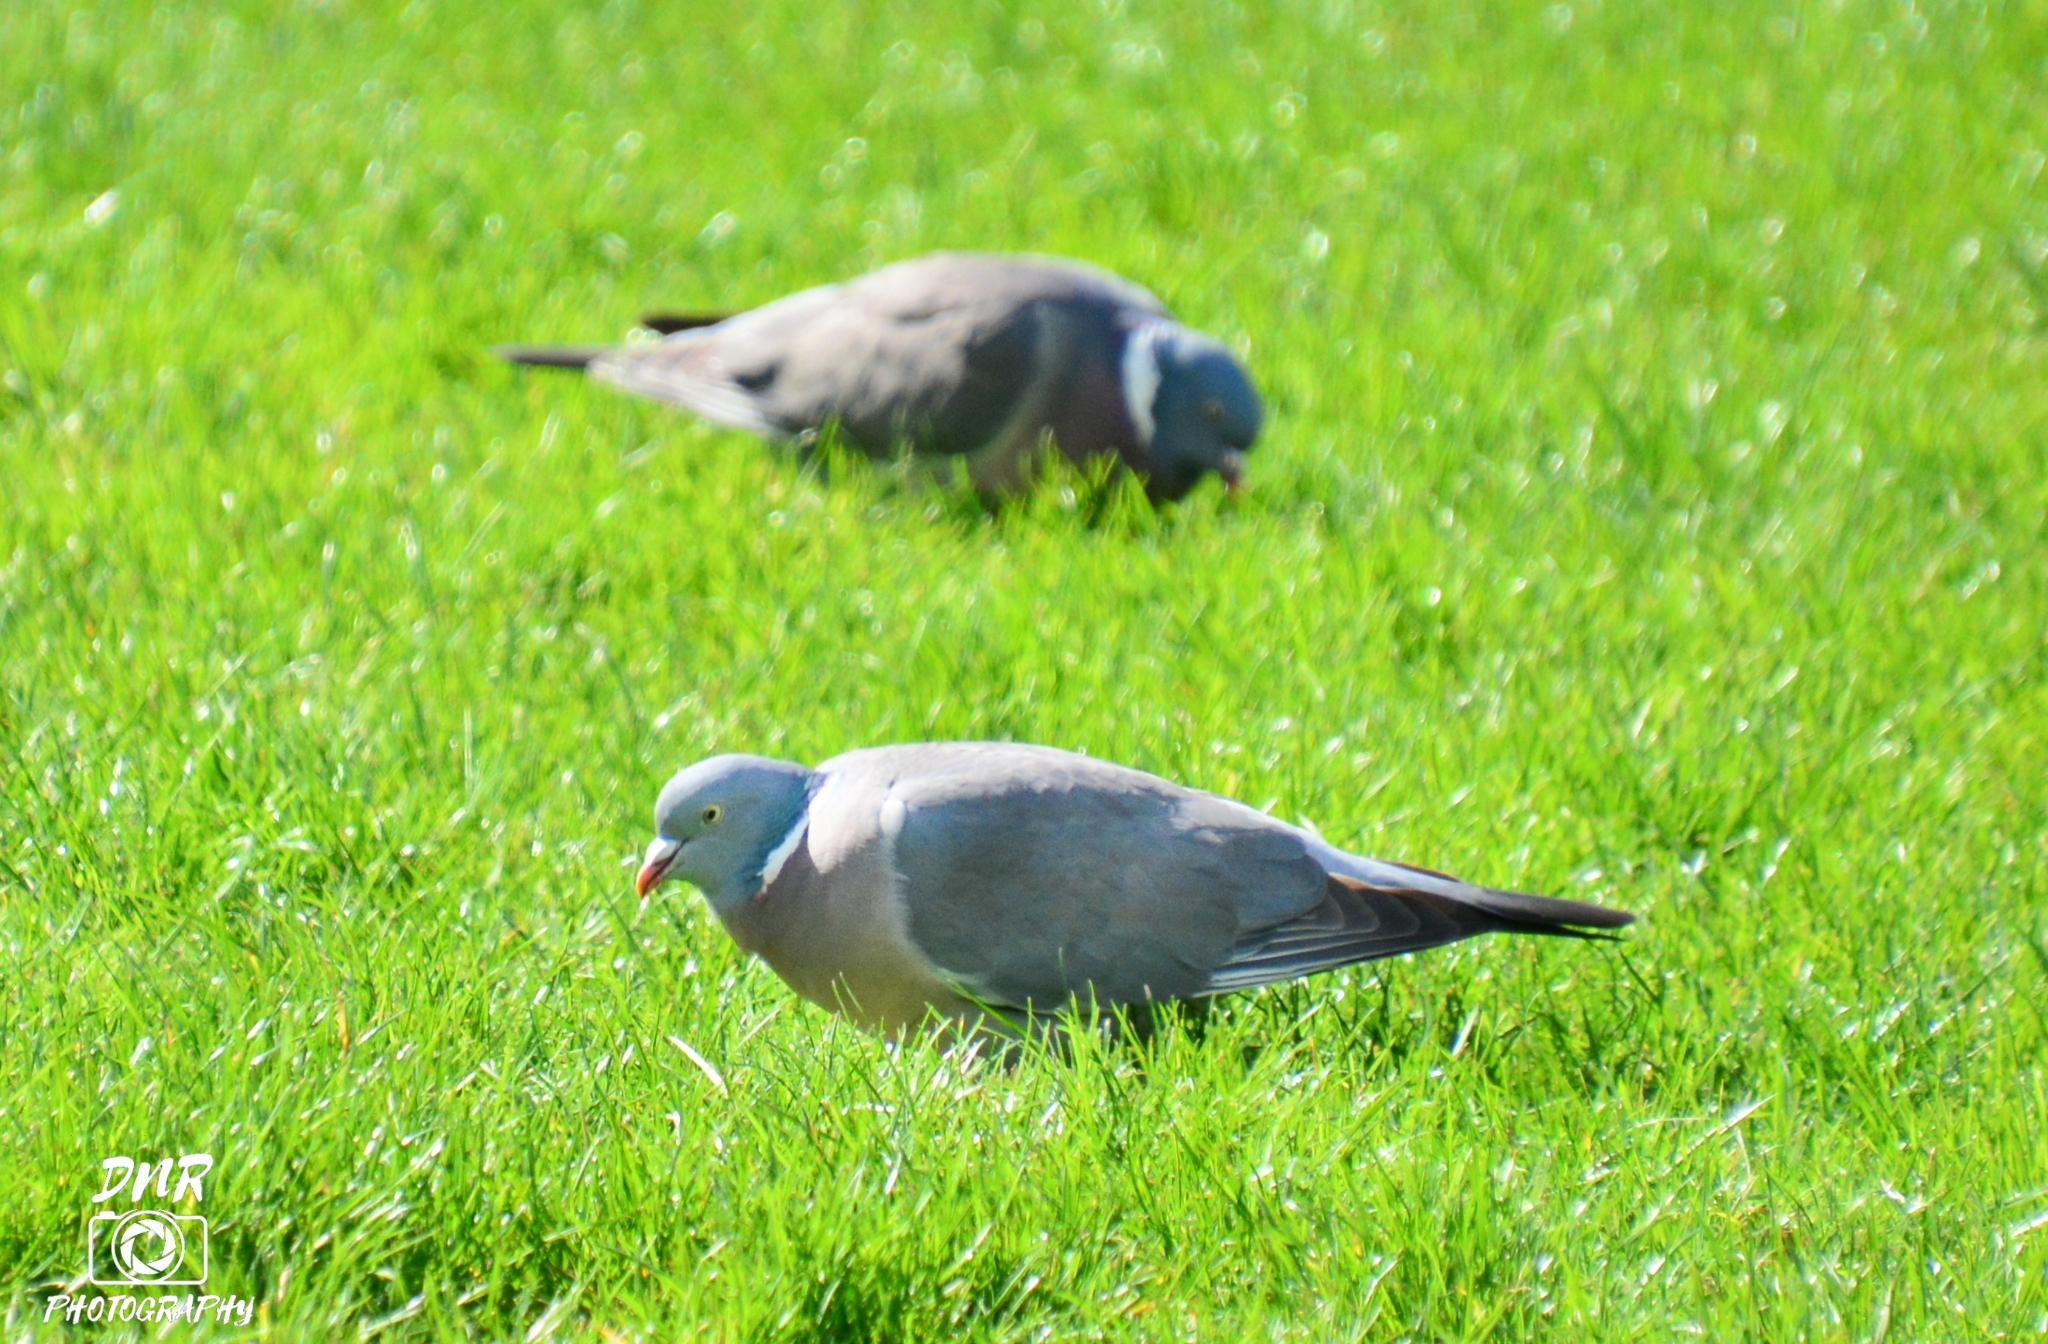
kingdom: Animalia
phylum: Chordata
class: Aves
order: Columbiformes
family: Columbidae
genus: Columba
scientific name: Columba palumbus
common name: Common wood pigeon
